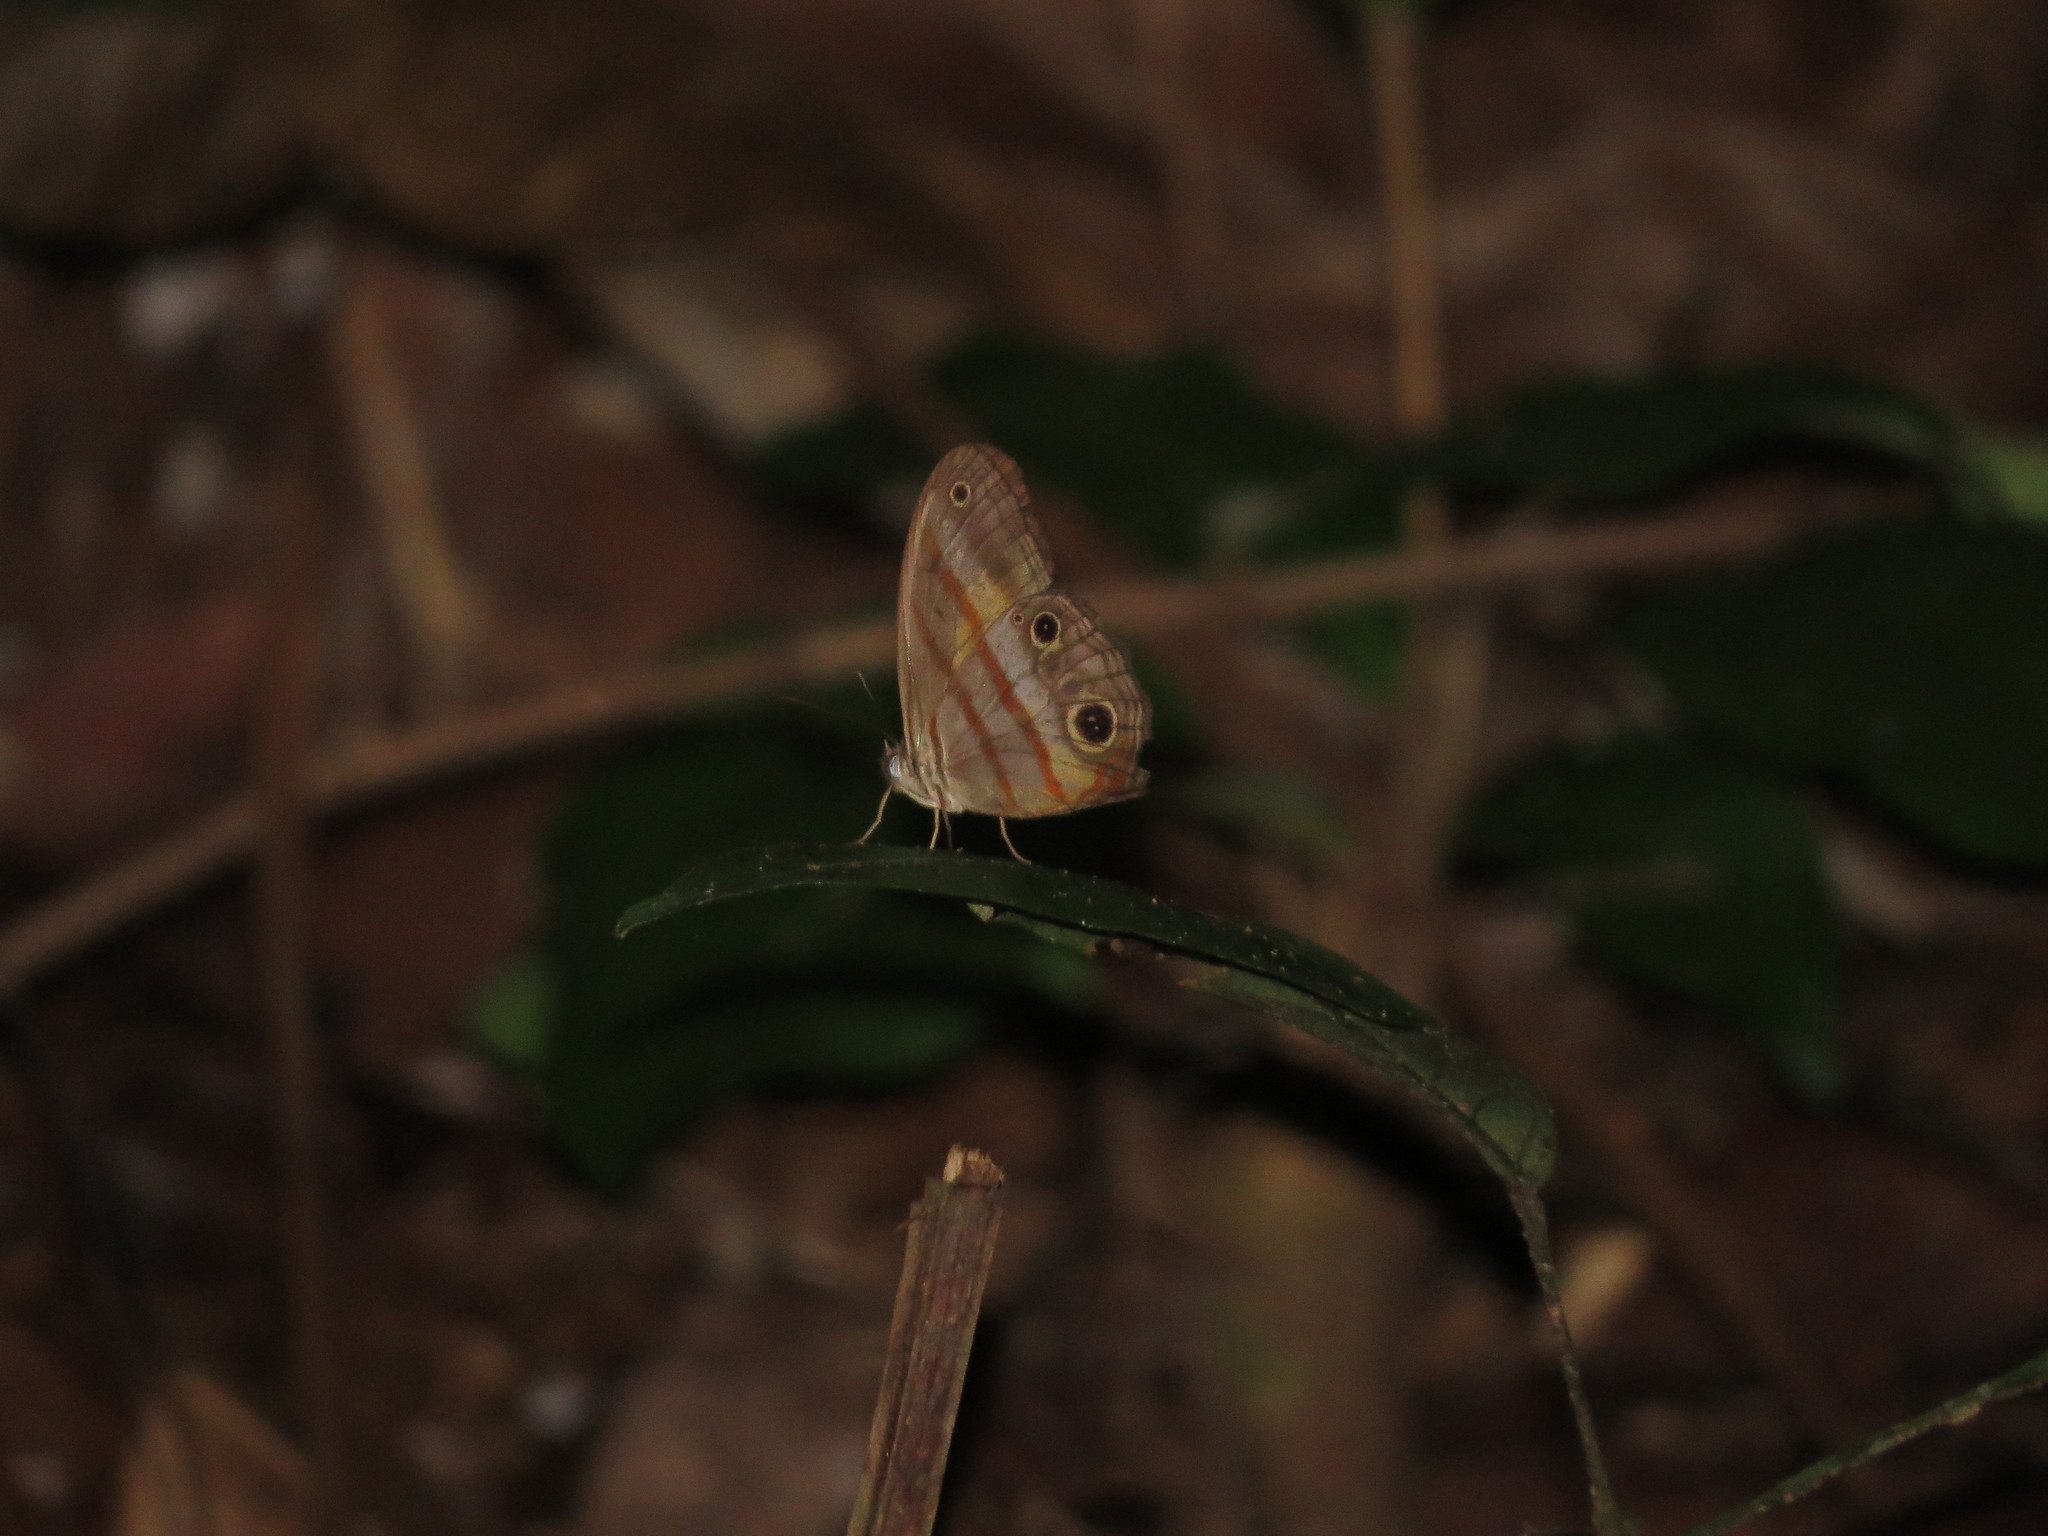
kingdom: Animalia
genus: Modestia
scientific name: Modestia
